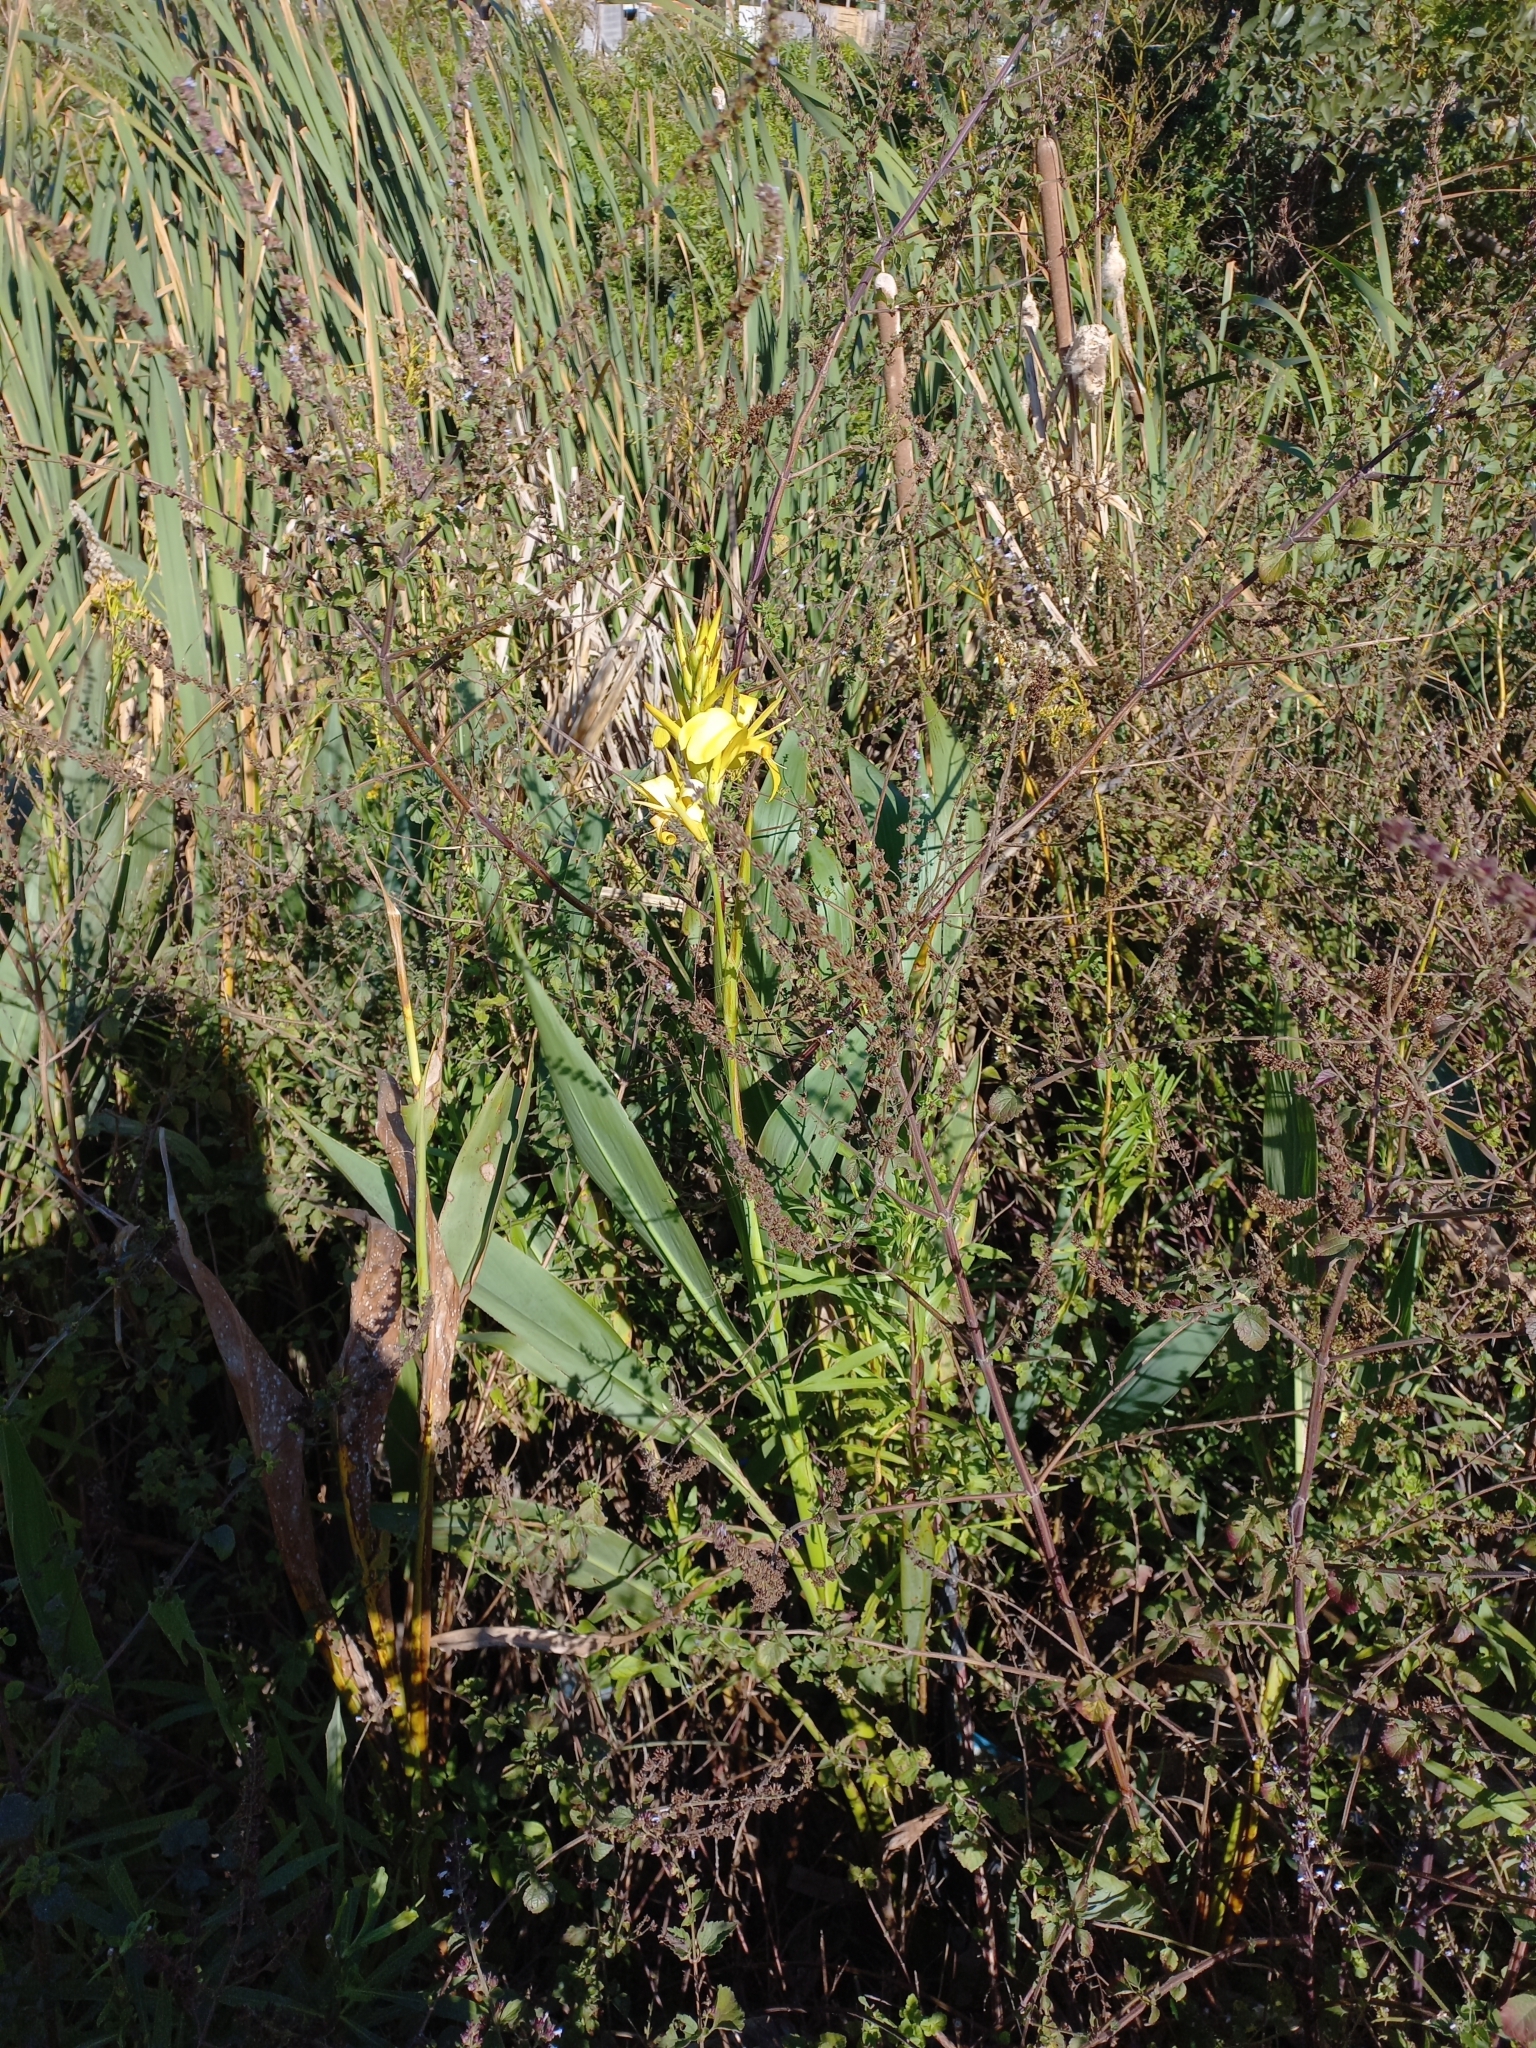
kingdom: Plantae
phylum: Tracheophyta
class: Liliopsida
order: Zingiberales
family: Cannaceae
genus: Canna
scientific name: Canna glauca
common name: Louisiana canna
